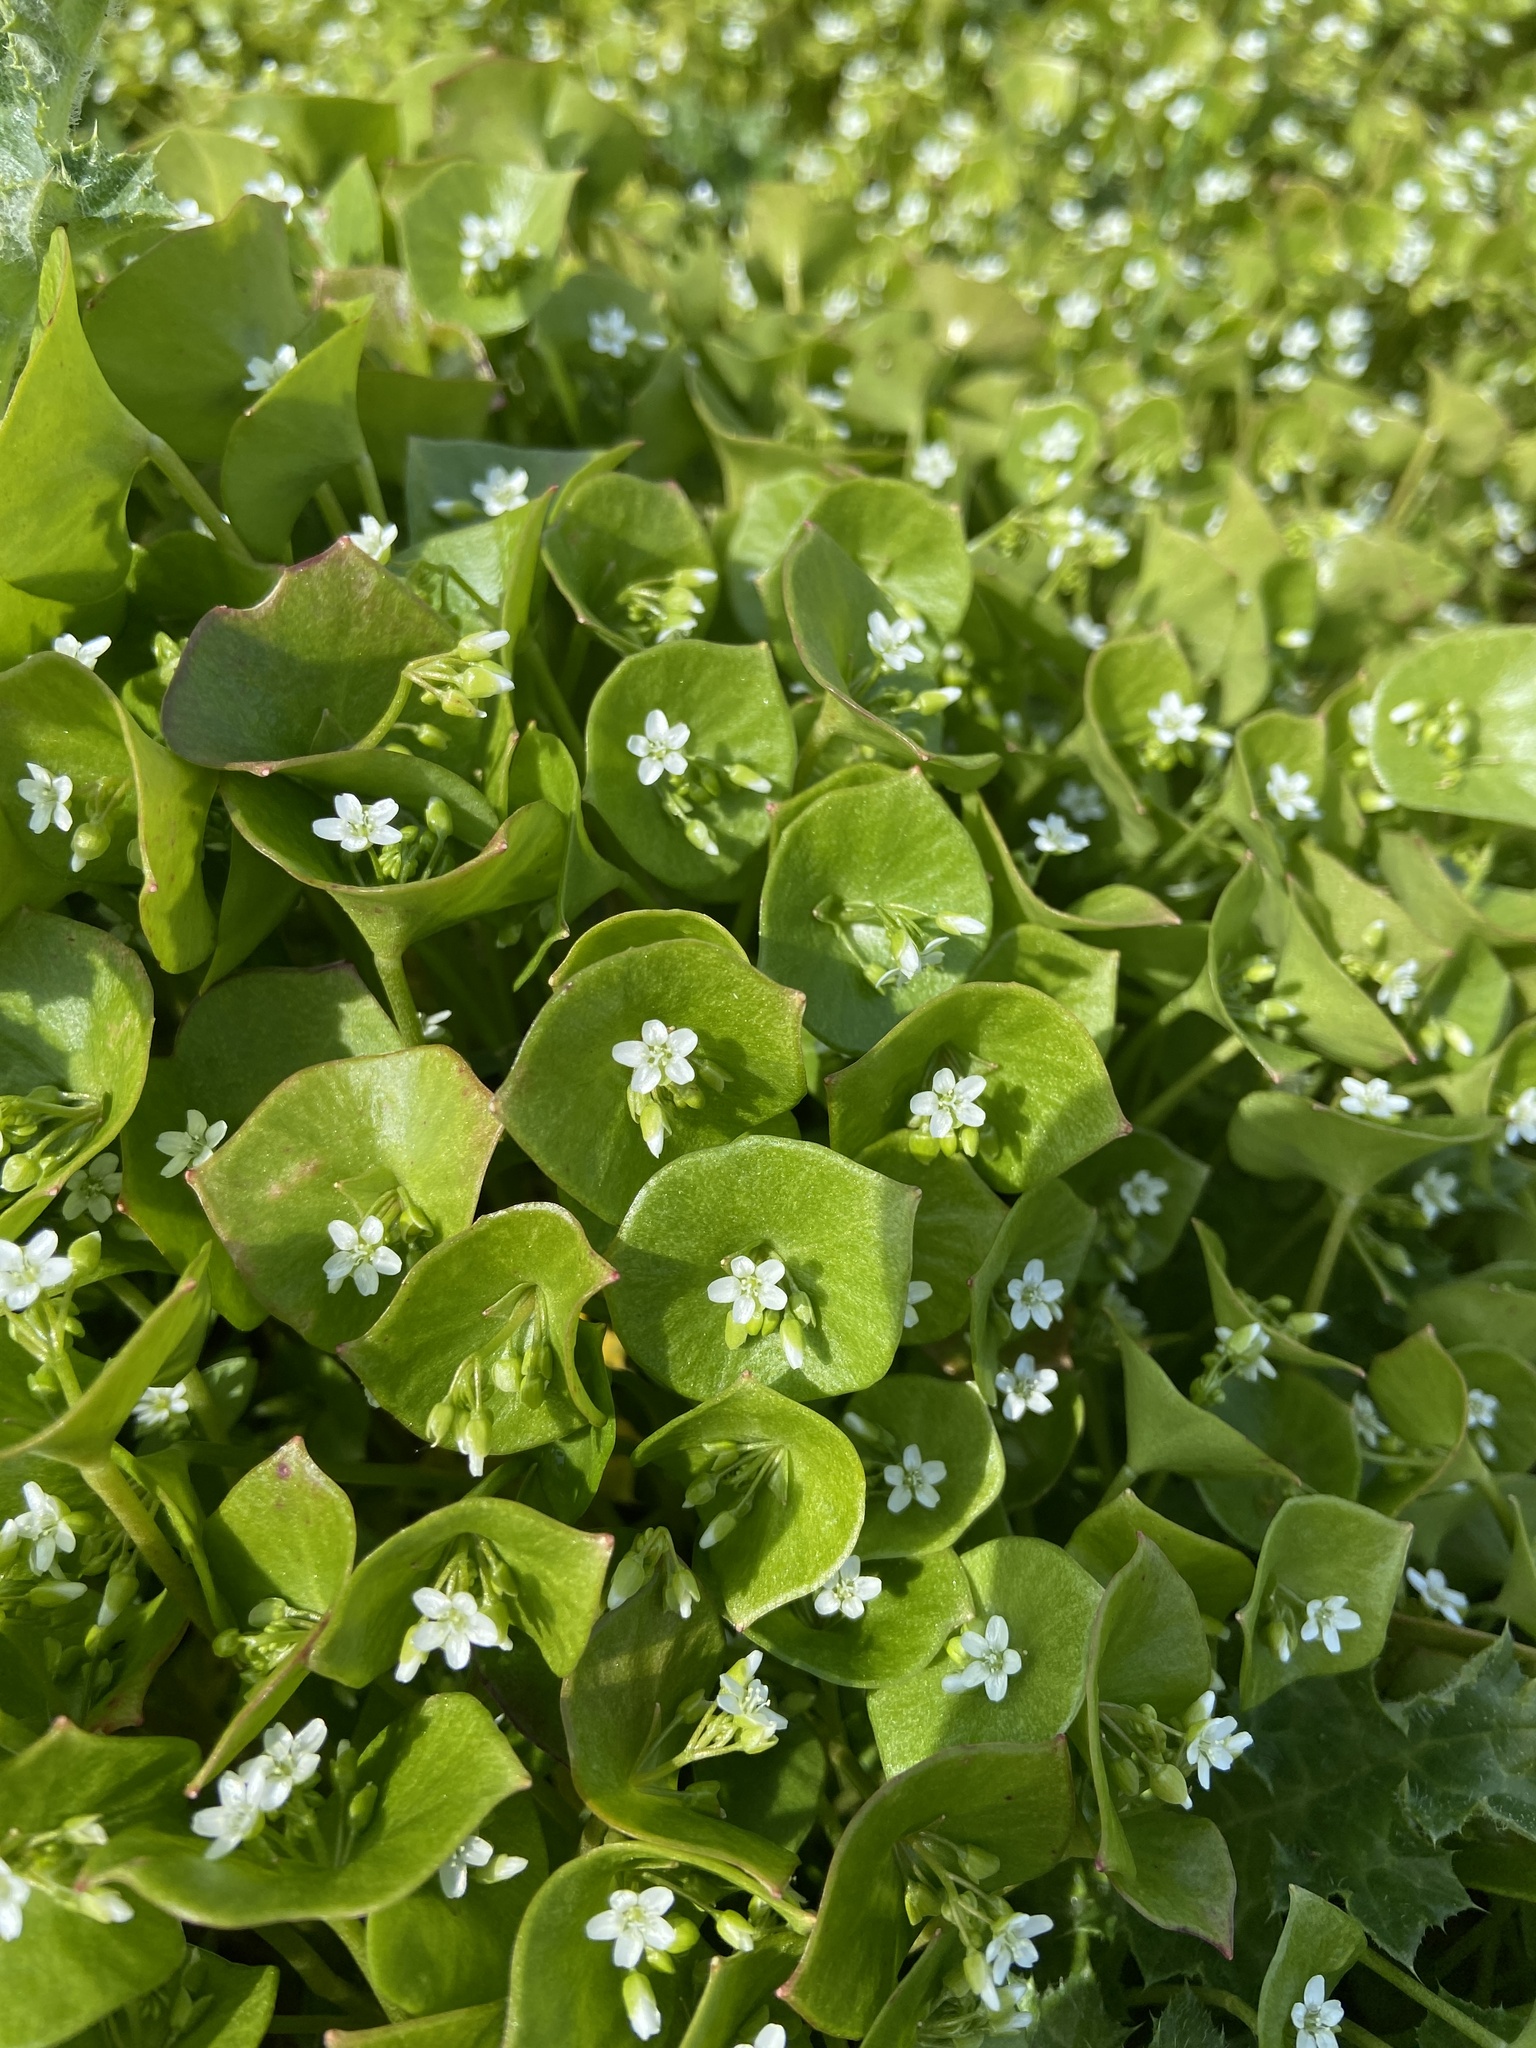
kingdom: Plantae
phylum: Tracheophyta
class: Magnoliopsida
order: Caryophyllales
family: Montiaceae
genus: Claytonia
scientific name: Claytonia perfoliata
